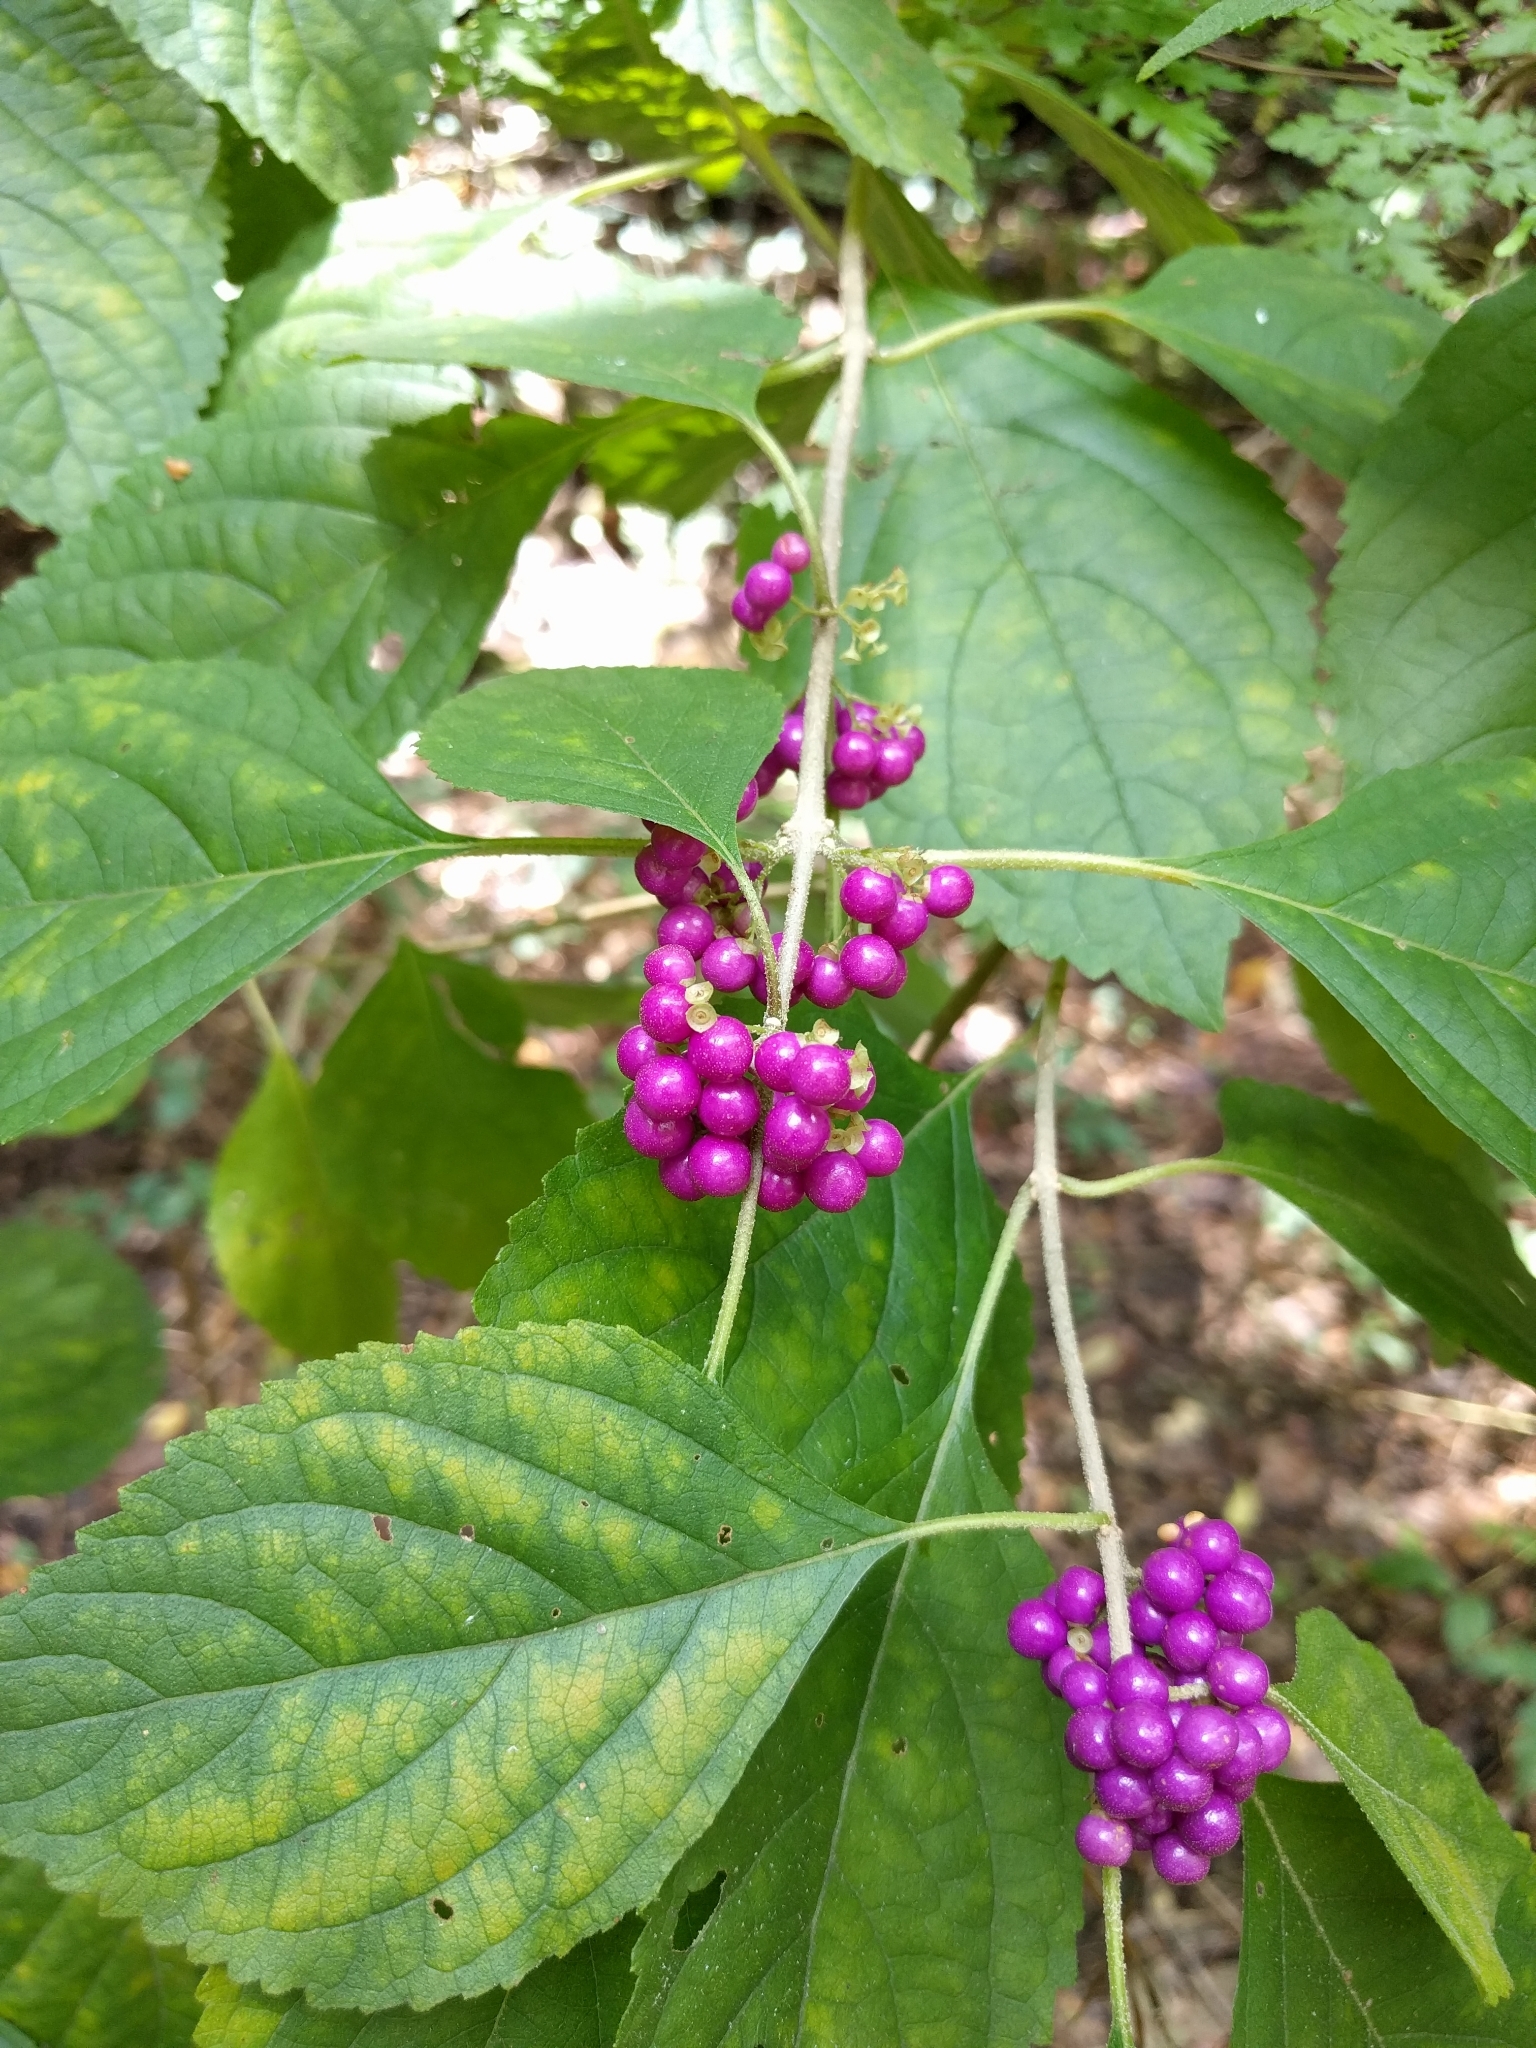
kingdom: Plantae
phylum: Tracheophyta
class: Magnoliopsida
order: Lamiales
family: Lamiaceae
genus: Callicarpa
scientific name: Callicarpa americana
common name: American beautyberry
